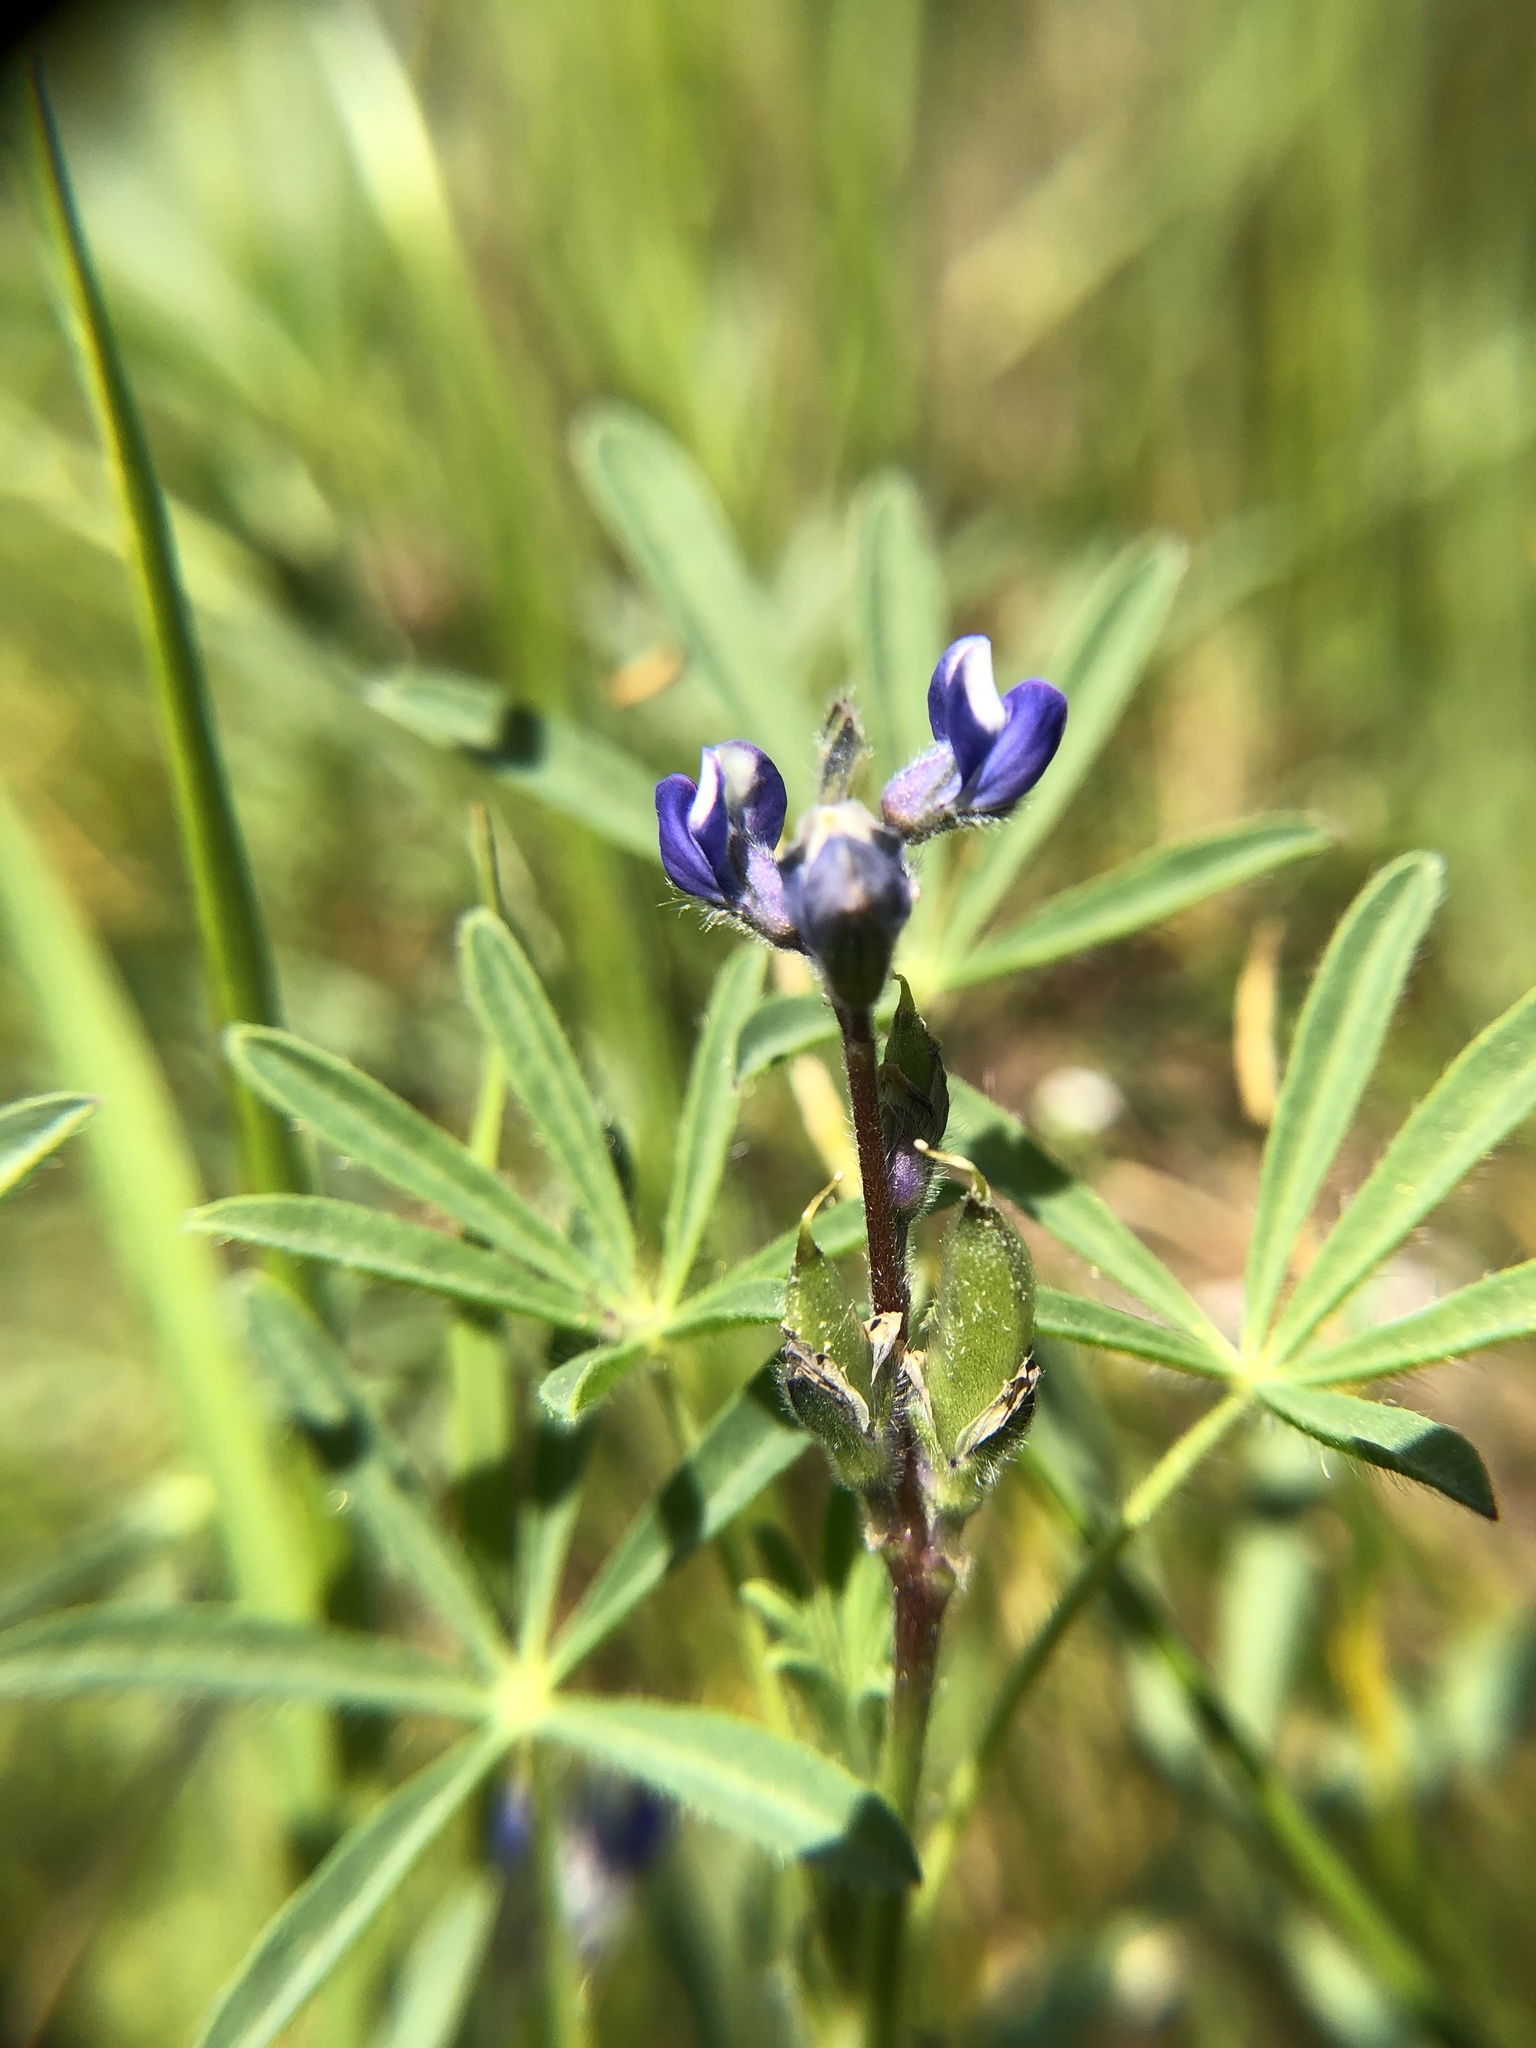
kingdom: Plantae
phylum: Tracheophyta
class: Magnoliopsida
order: Fabales
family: Fabaceae
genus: Lupinus
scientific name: Lupinus bicolor
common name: Miniature lupine
